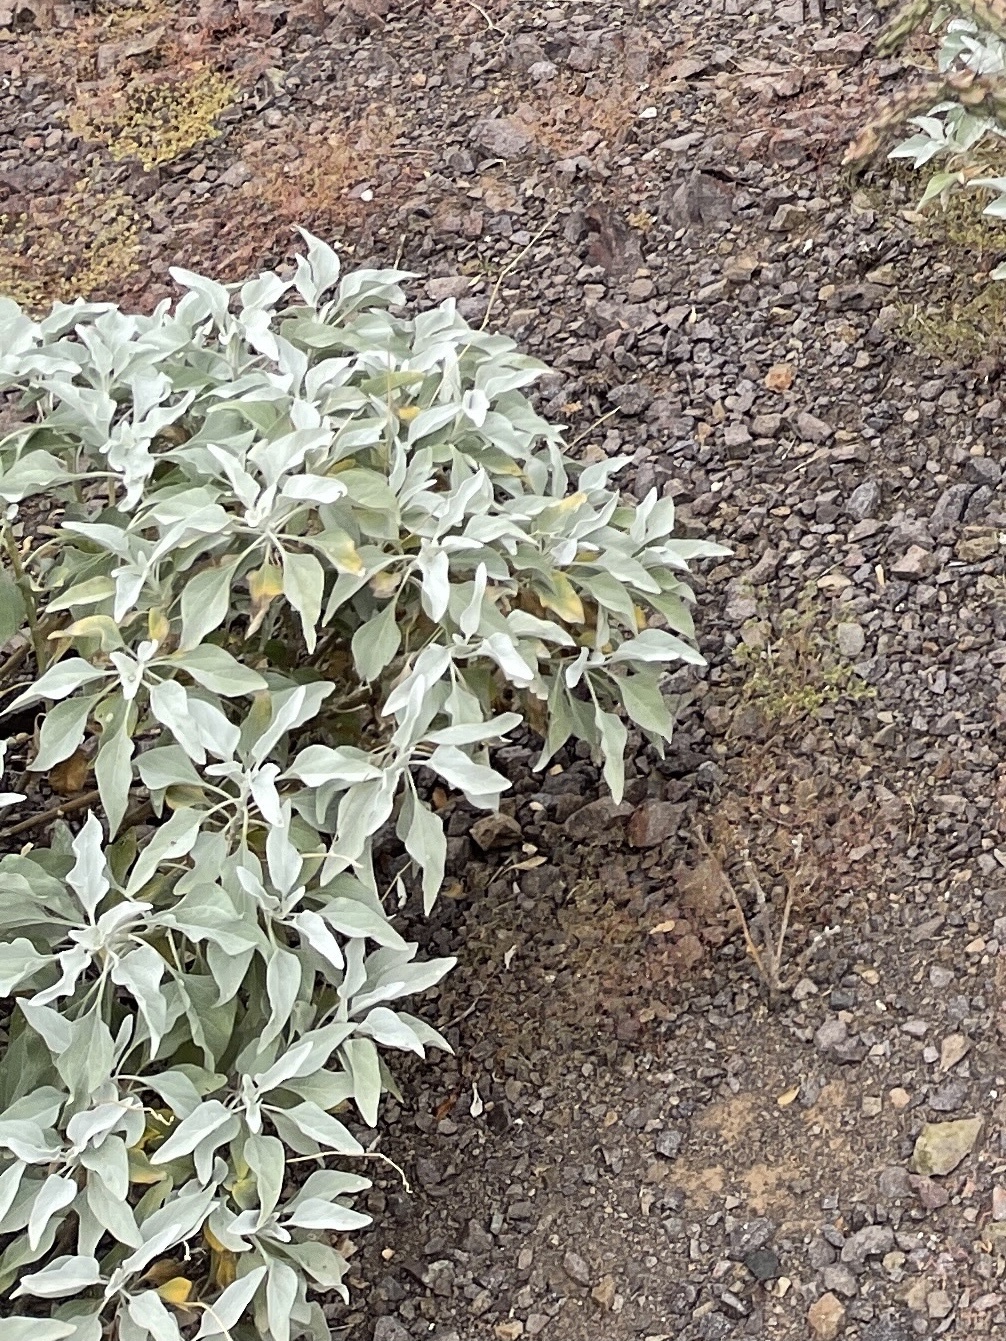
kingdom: Plantae
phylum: Tracheophyta
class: Magnoliopsida
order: Asterales
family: Asteraceae
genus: Encelia
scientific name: Encelia farinosa
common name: Brittlebush
